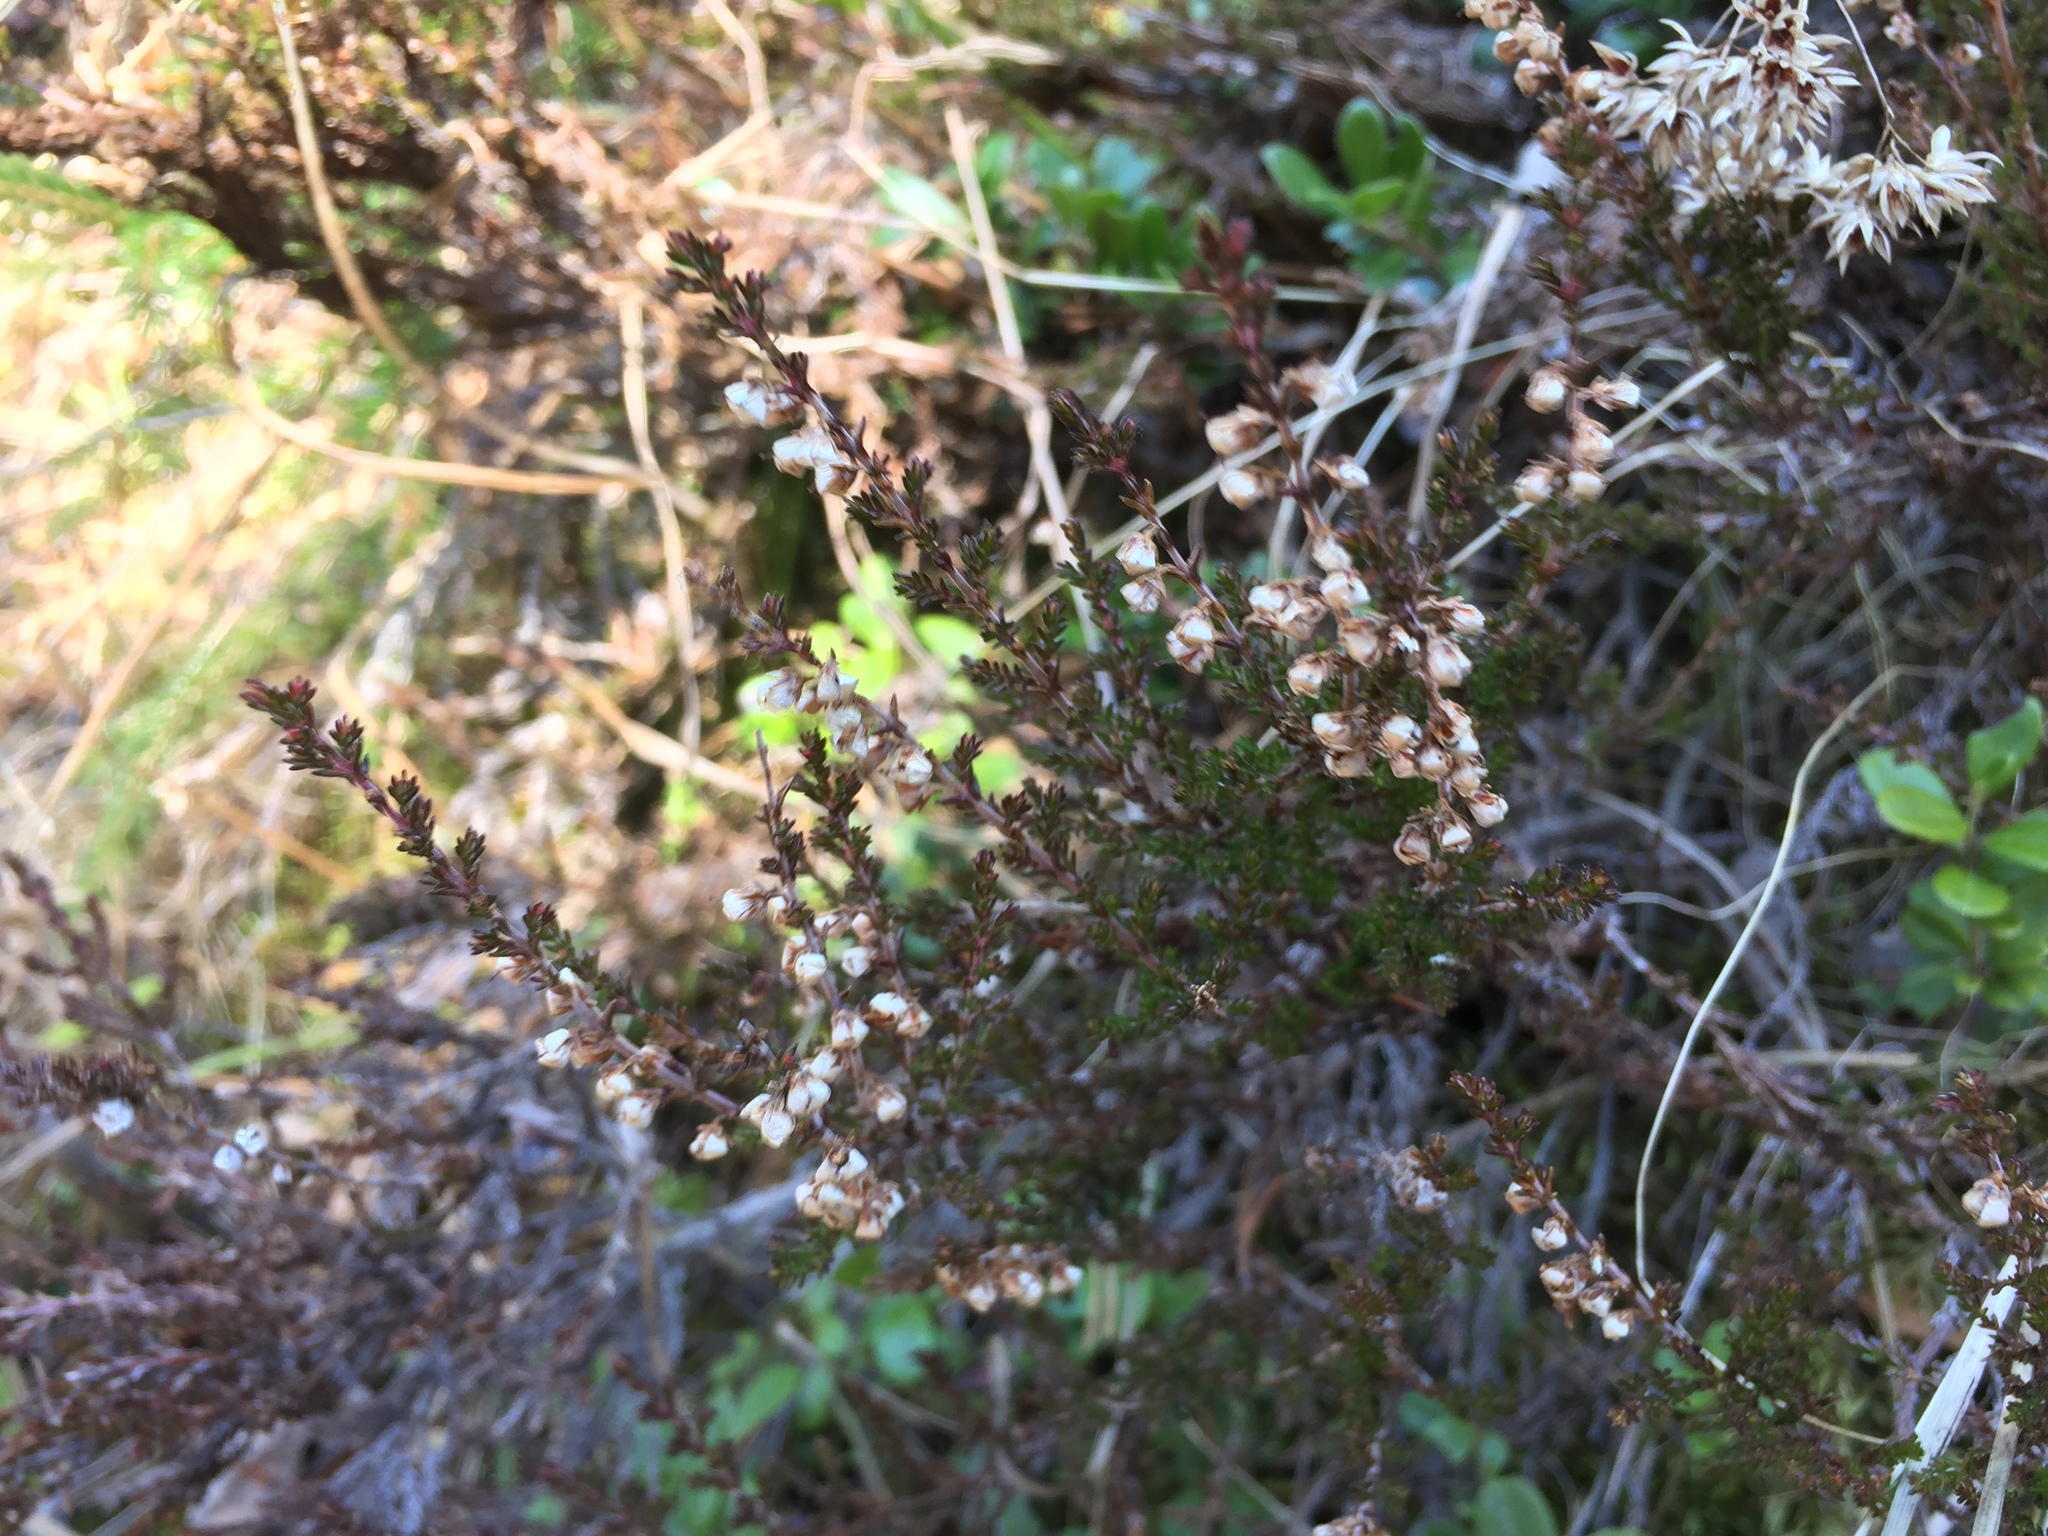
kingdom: Plantae
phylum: Tracheophyta
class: Magnoliopsida
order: Ericales
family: Ericaceae
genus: Calluna
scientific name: Calluna vulgaris
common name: Heather
